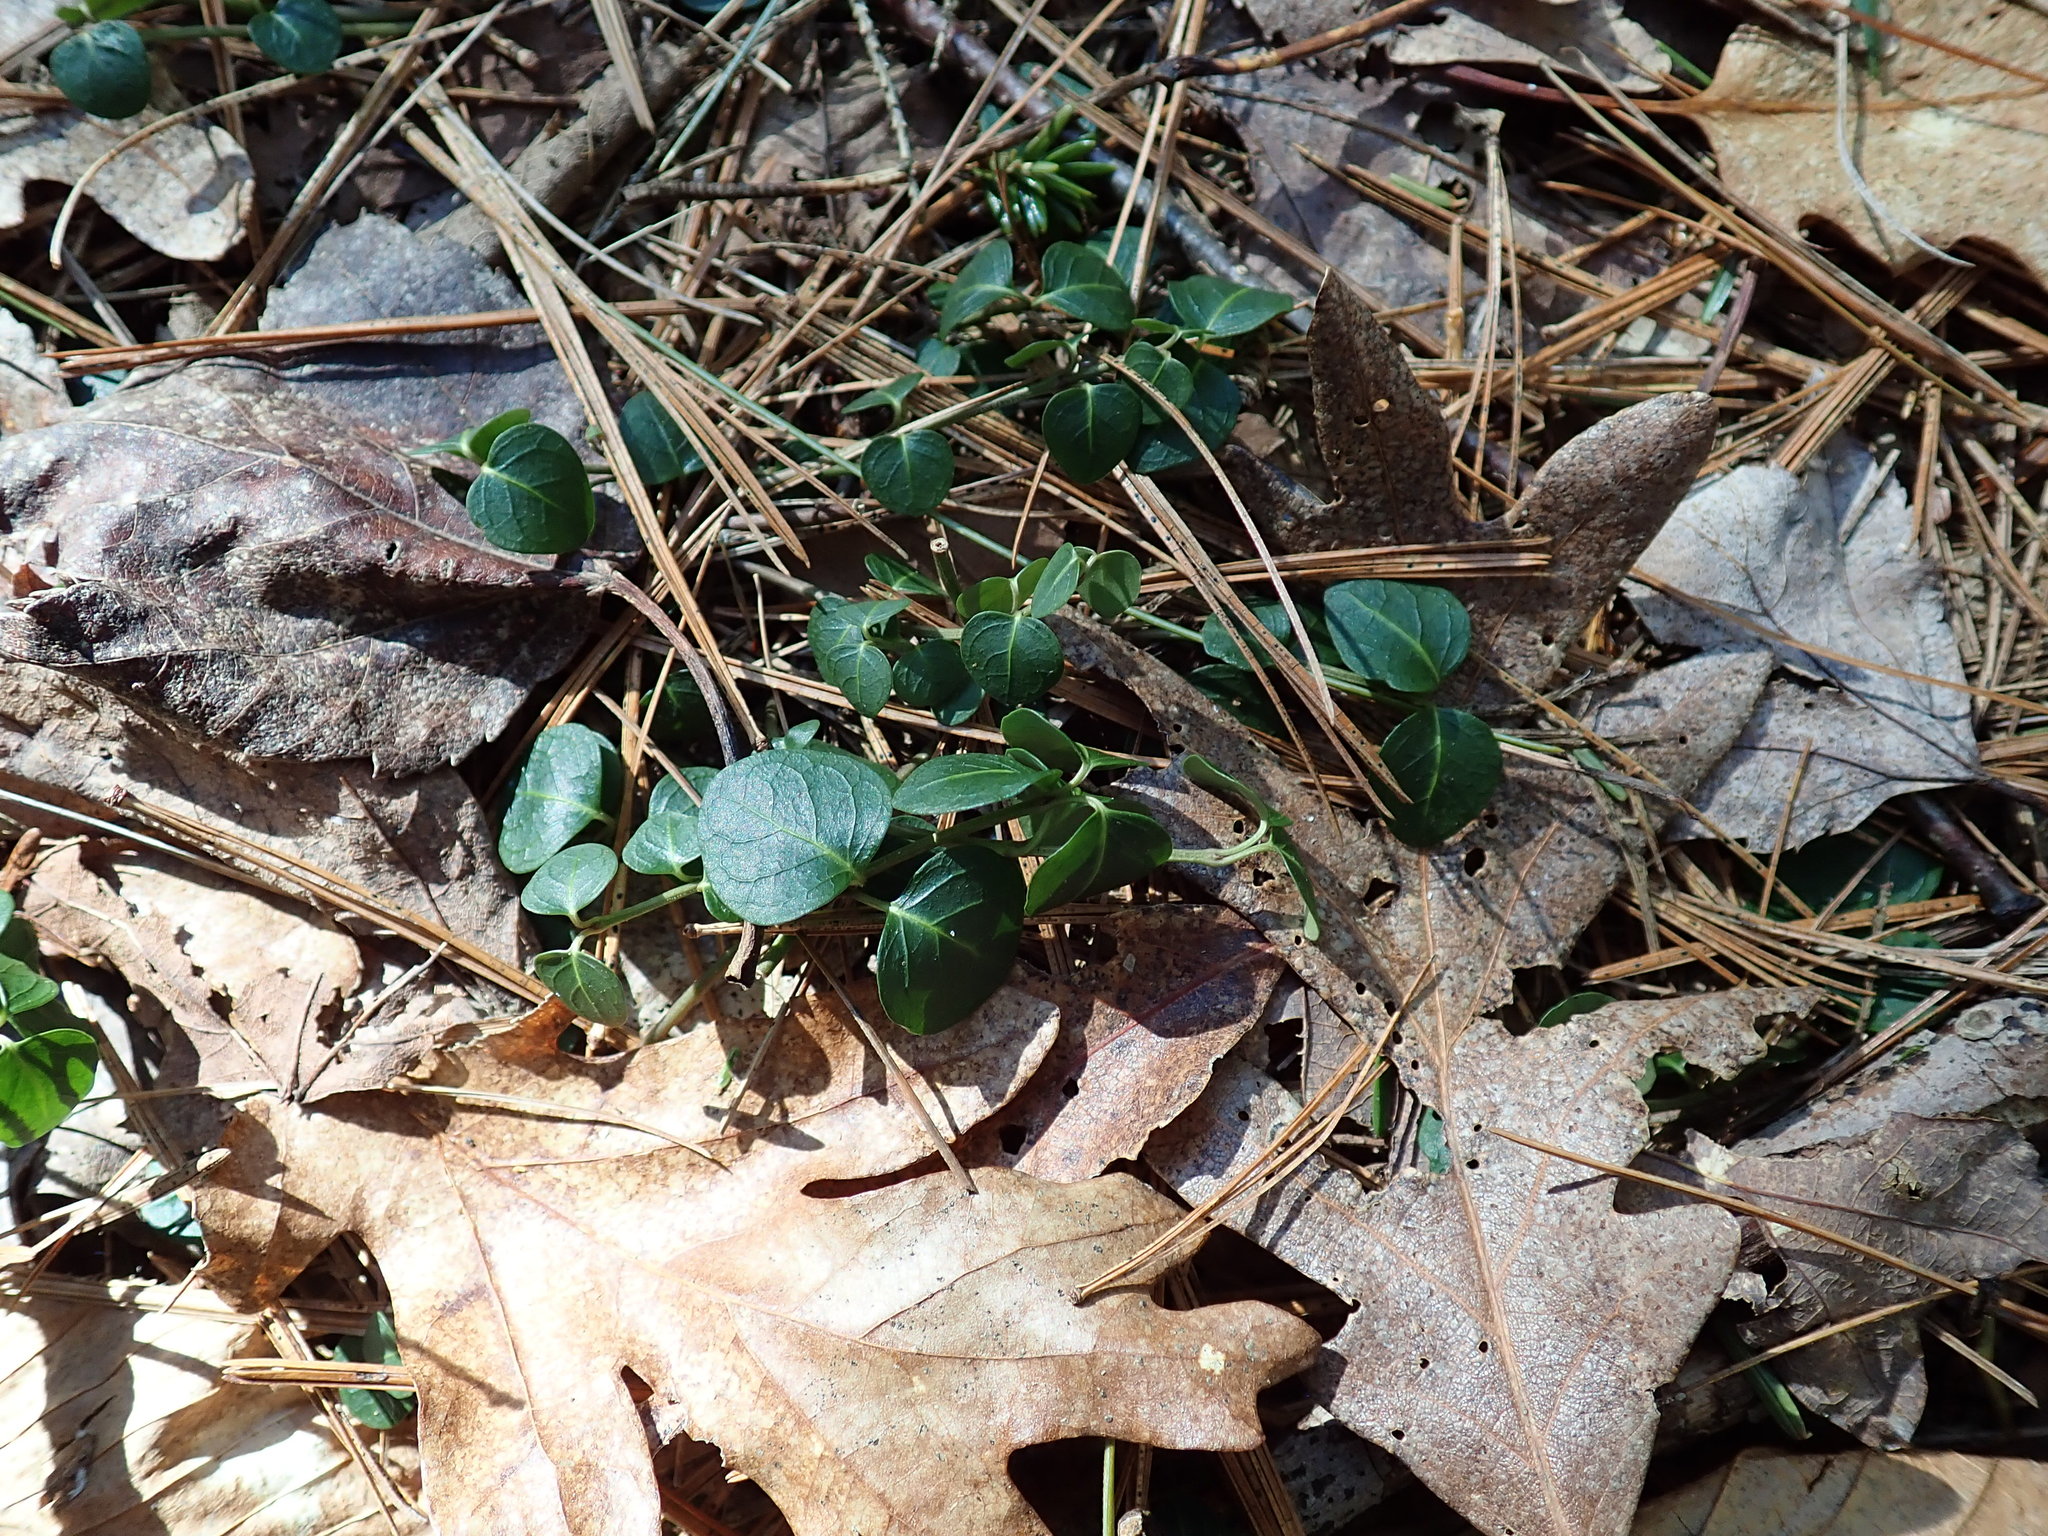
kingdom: Plantae
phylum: Tracheophyta
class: Magnoliopsida
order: Gentianales
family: Rubiaceae
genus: Mitchella
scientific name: Mitchella repens
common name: Partridge-berry
